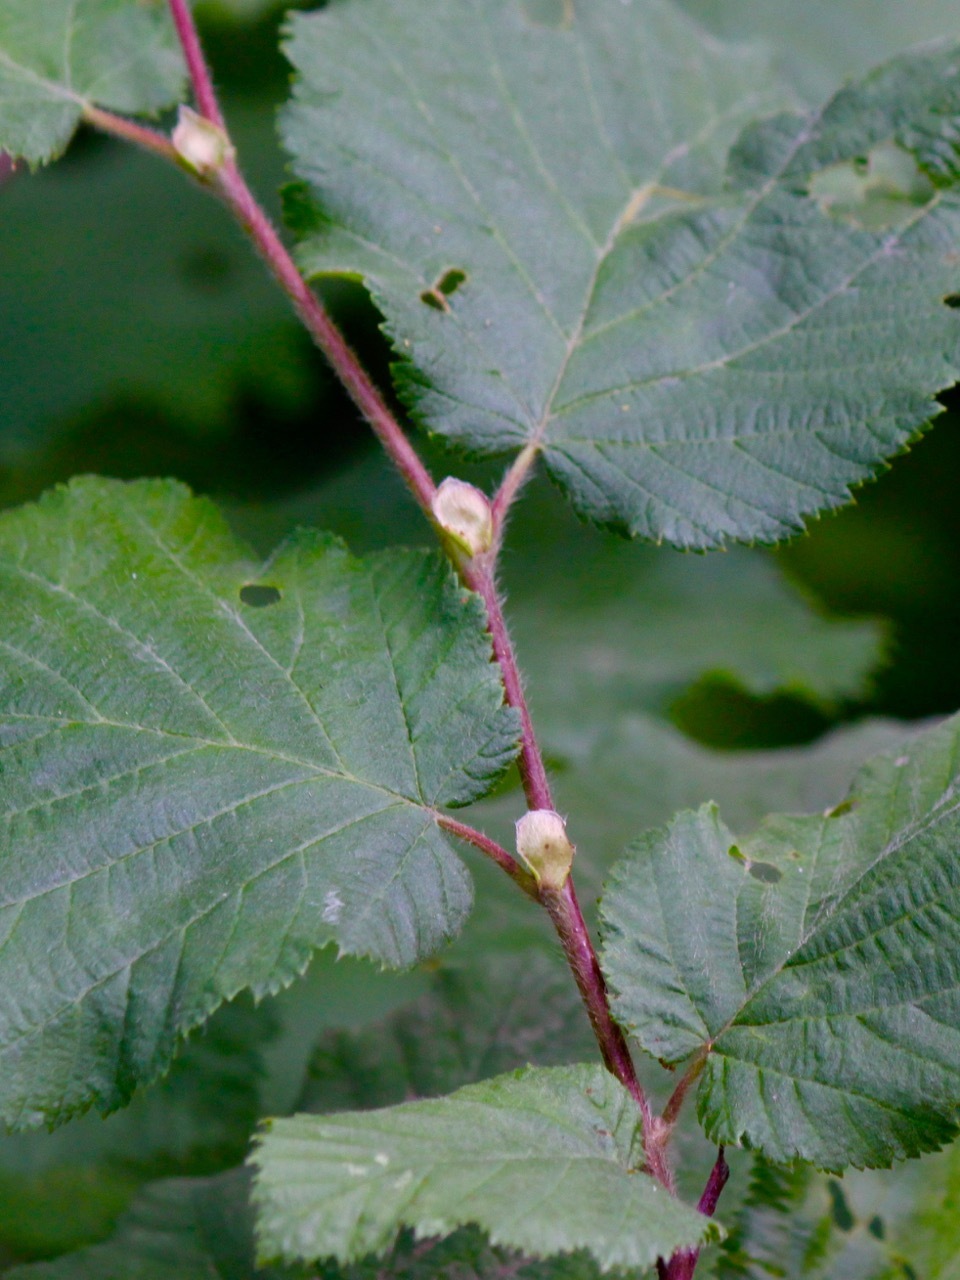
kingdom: Plantae
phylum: Tracheophyta
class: Magnoliopsida
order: Fagales
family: Betulaceae
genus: Corylus
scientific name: Corylus cornuta
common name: Beaked hazel
